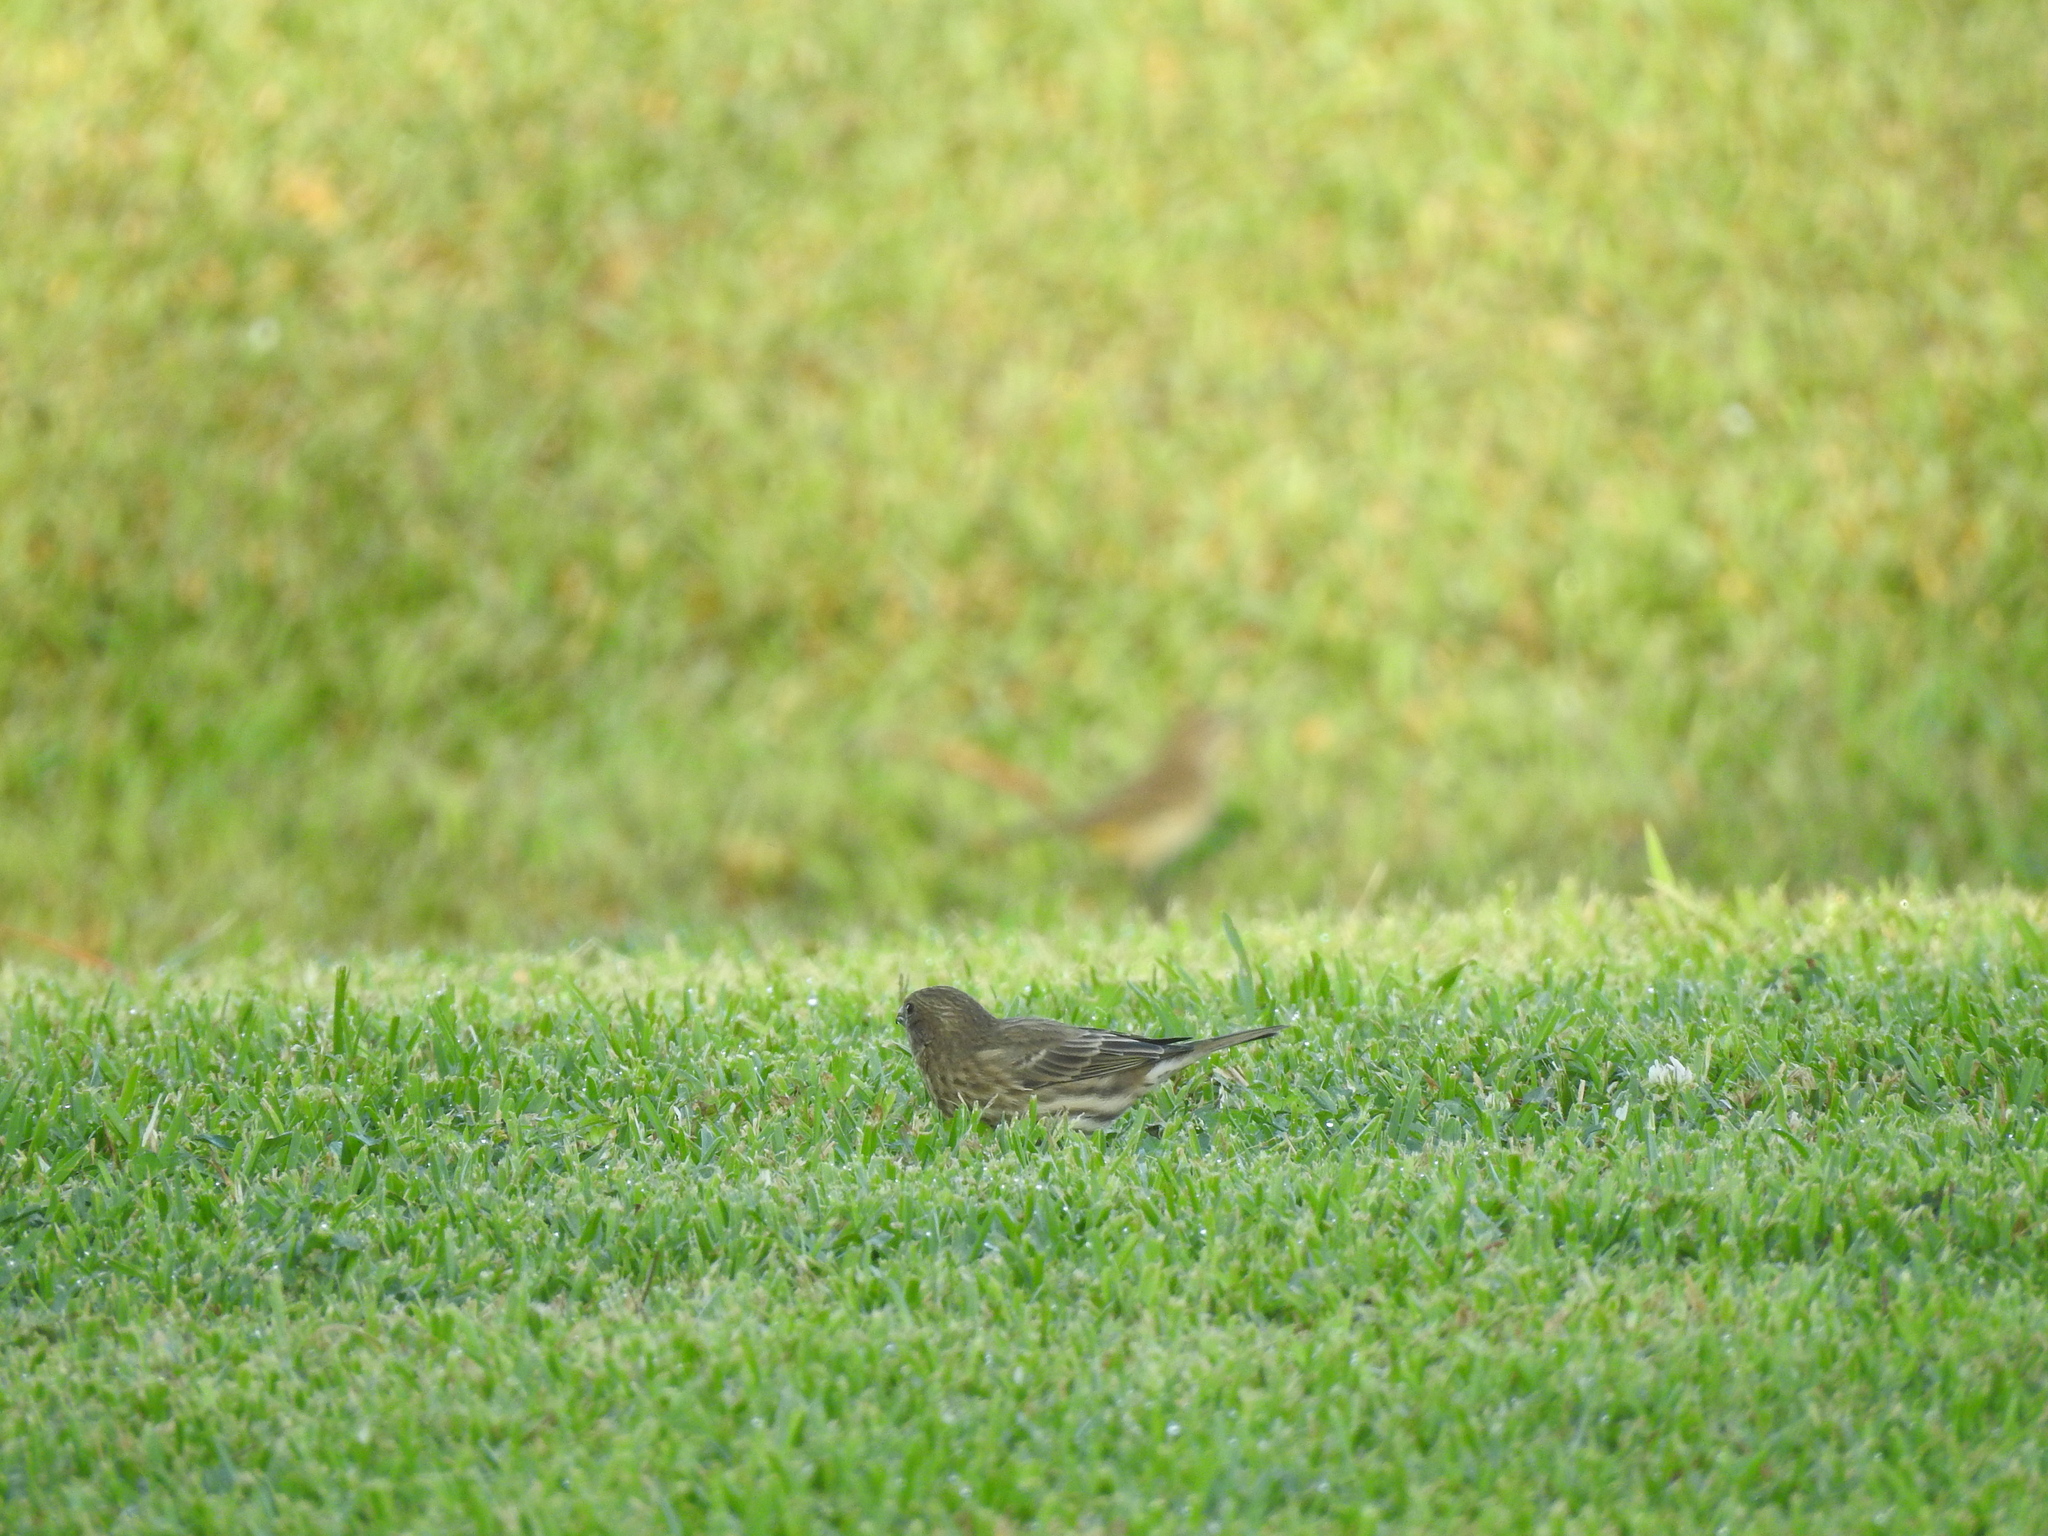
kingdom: Animalia
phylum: Chordata
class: Aves
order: Passeriformes
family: Fringillidae
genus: Haemorhous
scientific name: Haemorhous mexicanus
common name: House finch
